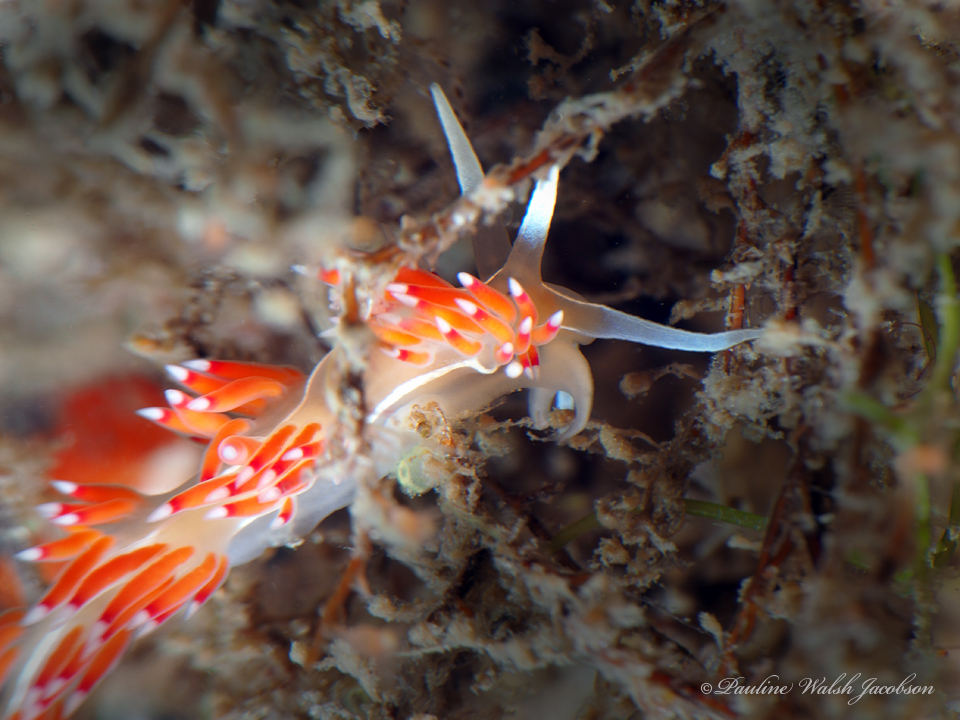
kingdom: Animalia
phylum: Mollusca
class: Gastropoda
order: Nudibranchia
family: Coryphellidae
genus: Coryphella
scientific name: Coryphella verta
